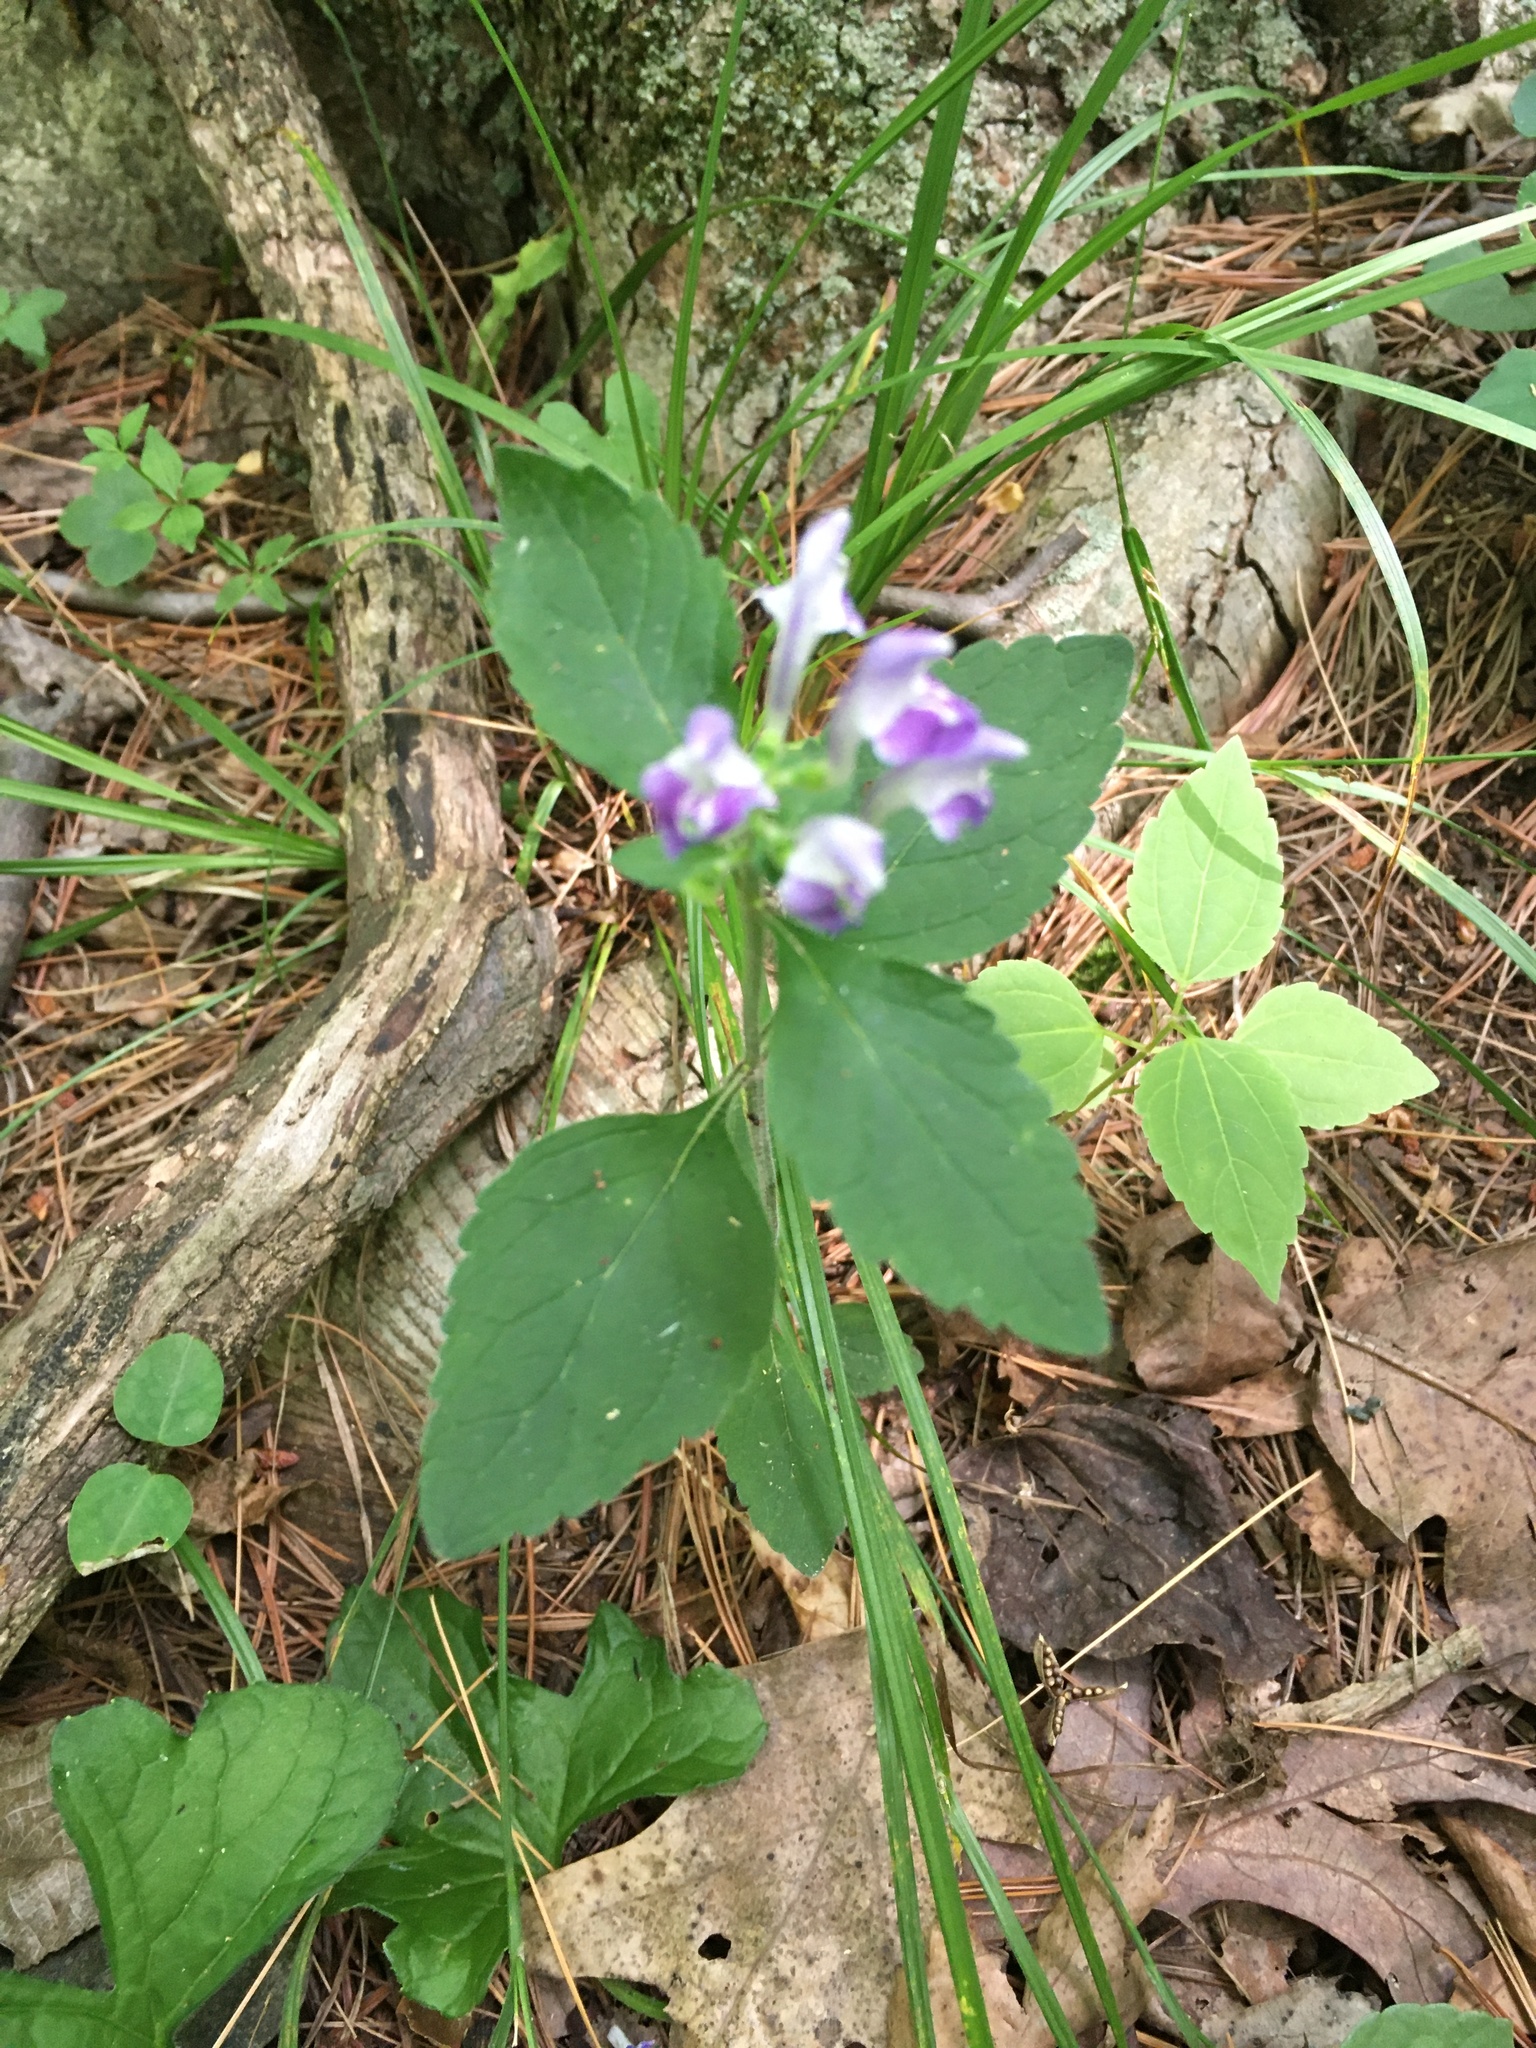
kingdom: Plantae
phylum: Tracheophyta
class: Magnoliopsida
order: Lamiales
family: Lamiaceae
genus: Scutellaria
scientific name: Scutellaria elliptica
